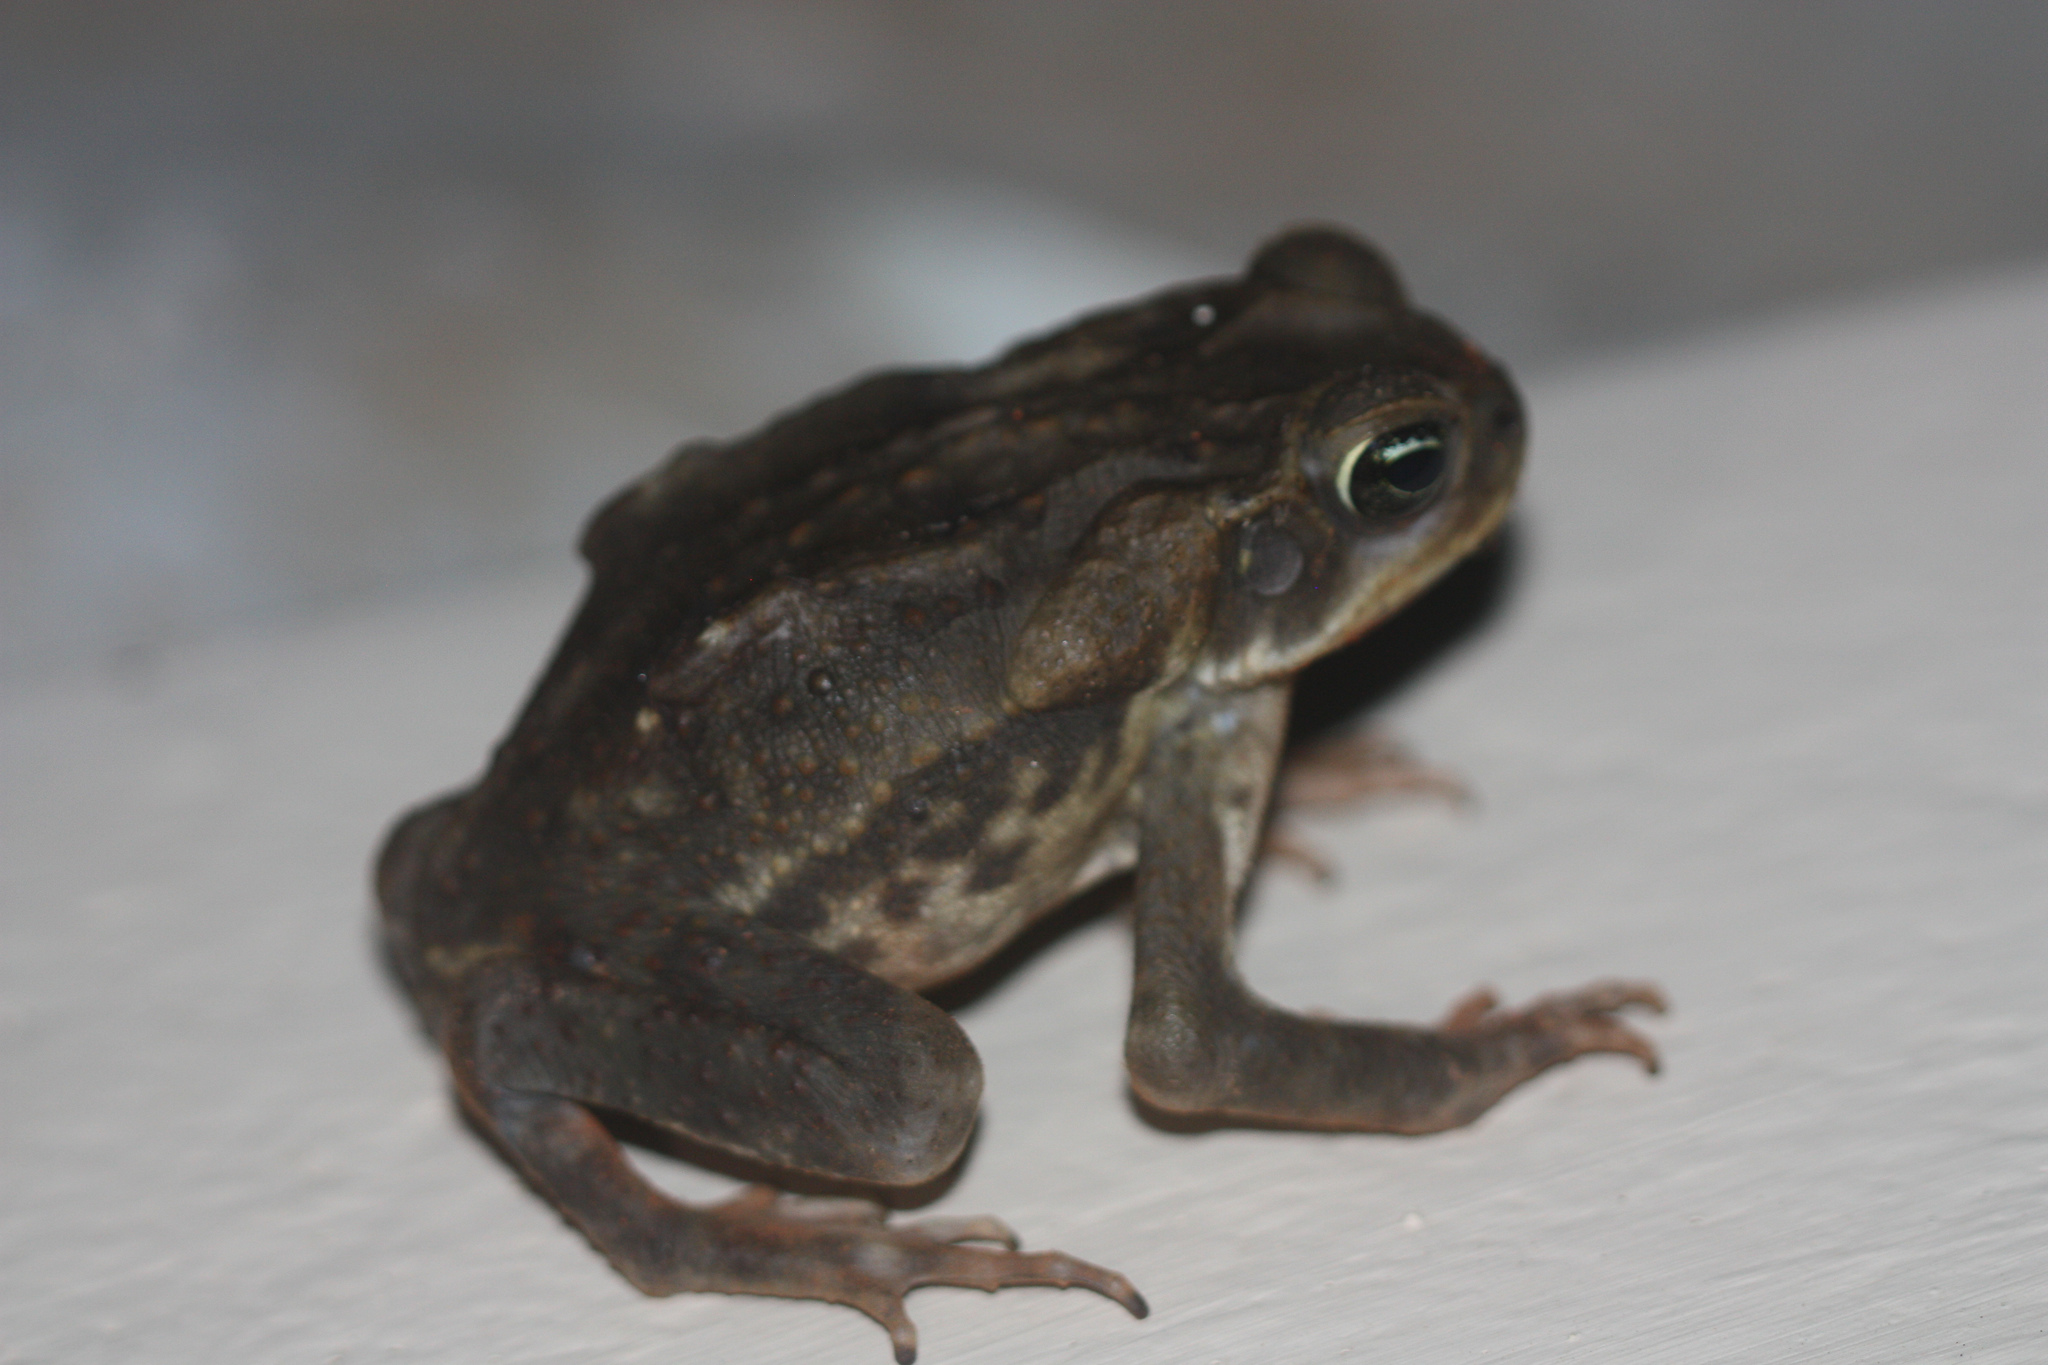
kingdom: Animalia
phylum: Chordata
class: Amphibia
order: Anura
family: Bufonidae
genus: Rhinella
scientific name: Rhinella horribilis
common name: Mesoamerican cane toad
